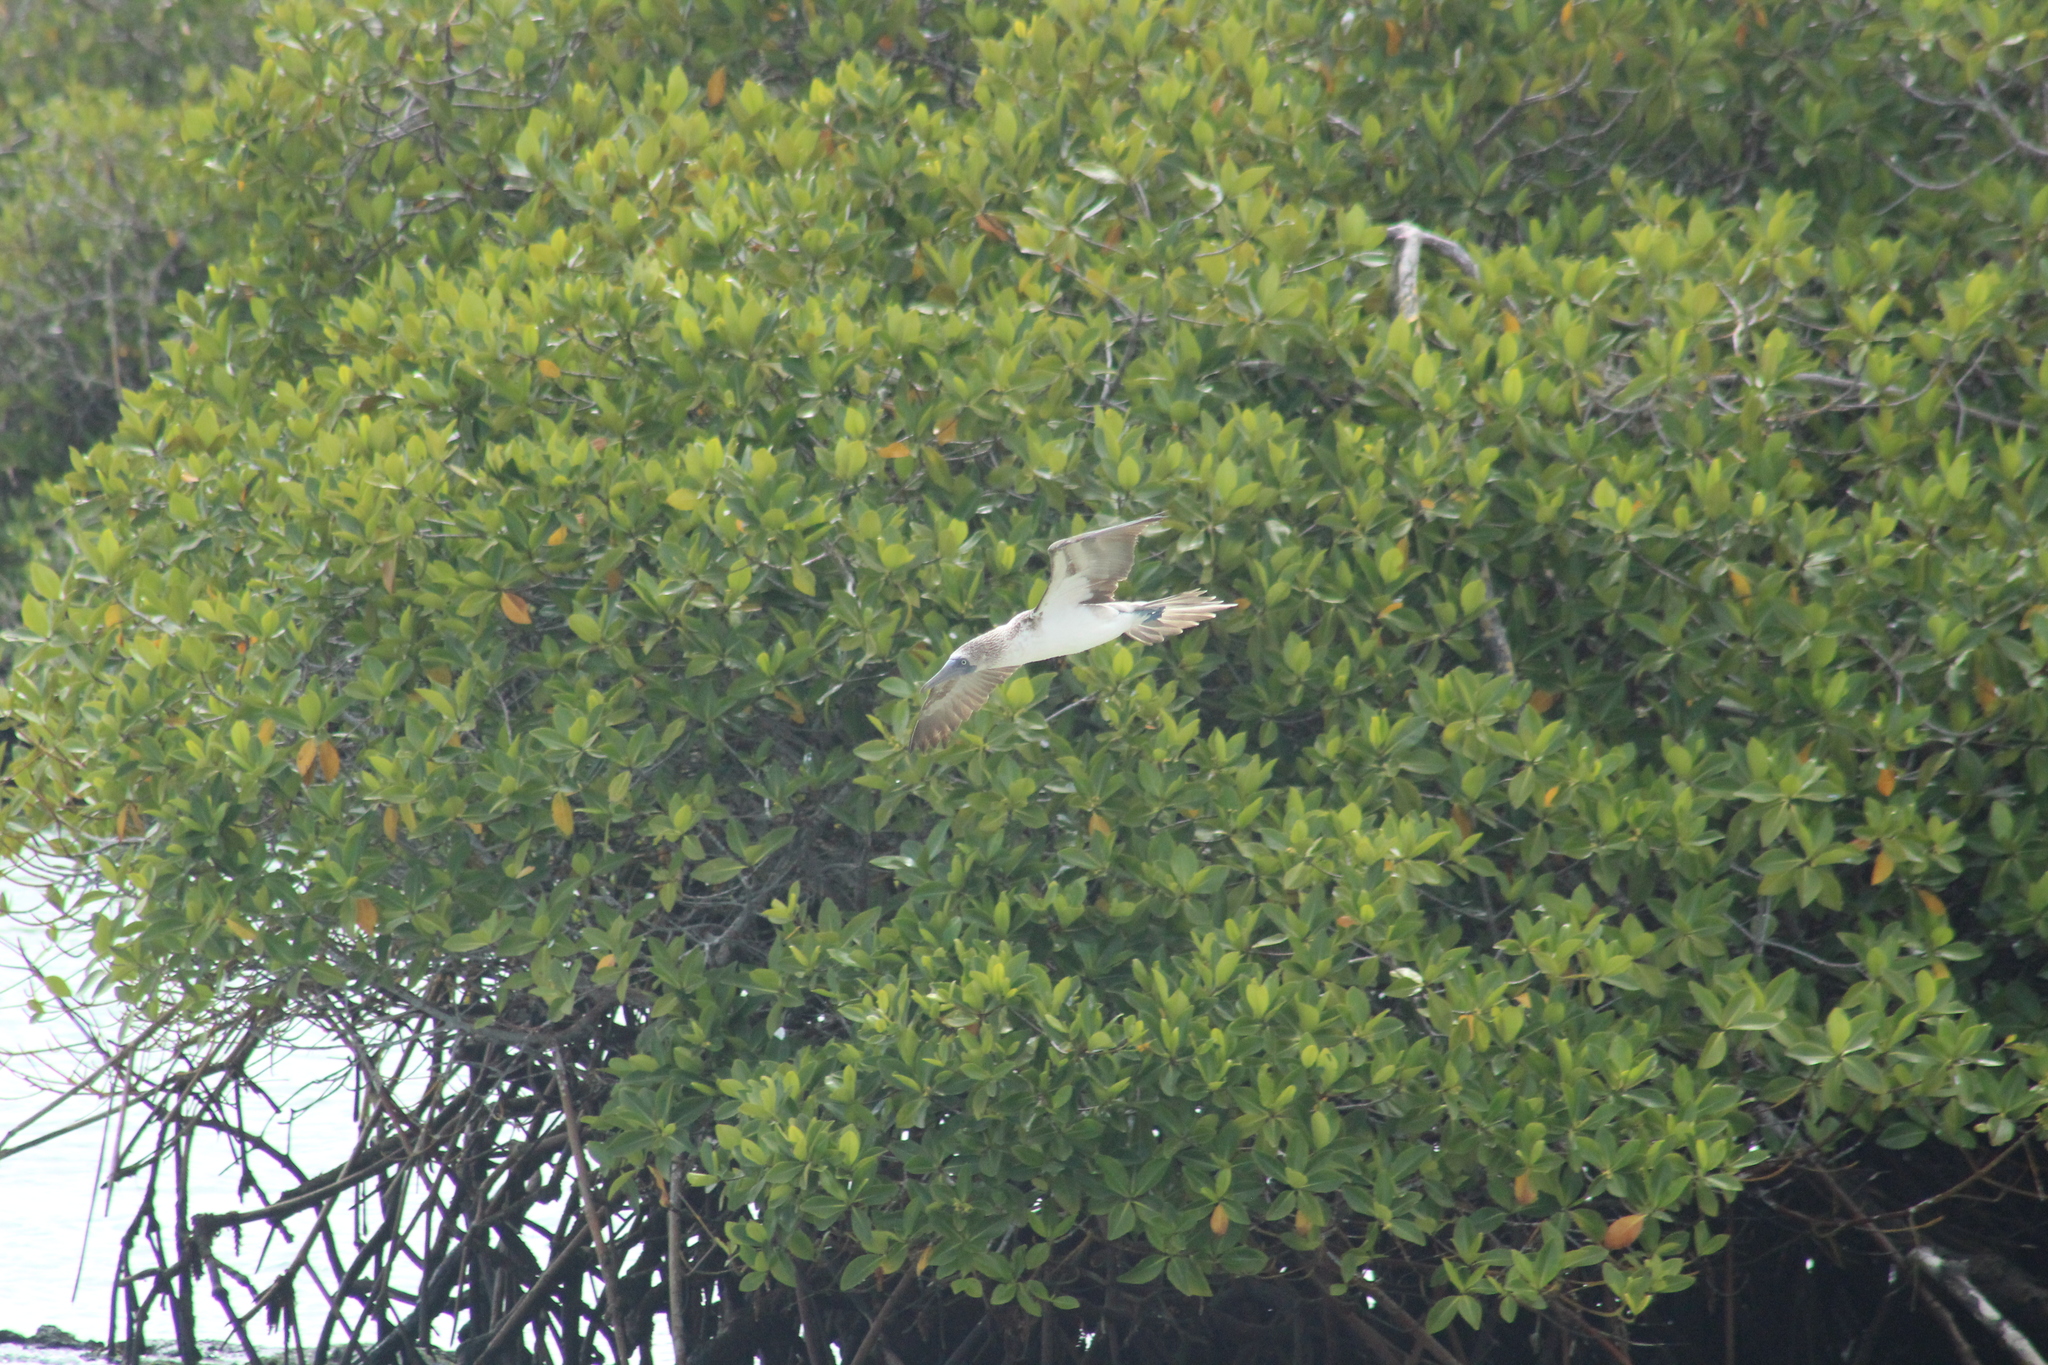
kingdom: Animalia
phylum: Chordata
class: Aves
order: Suliformes
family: Sulidae
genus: Sula
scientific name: Sula nebouxii
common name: Blue-footed booby
